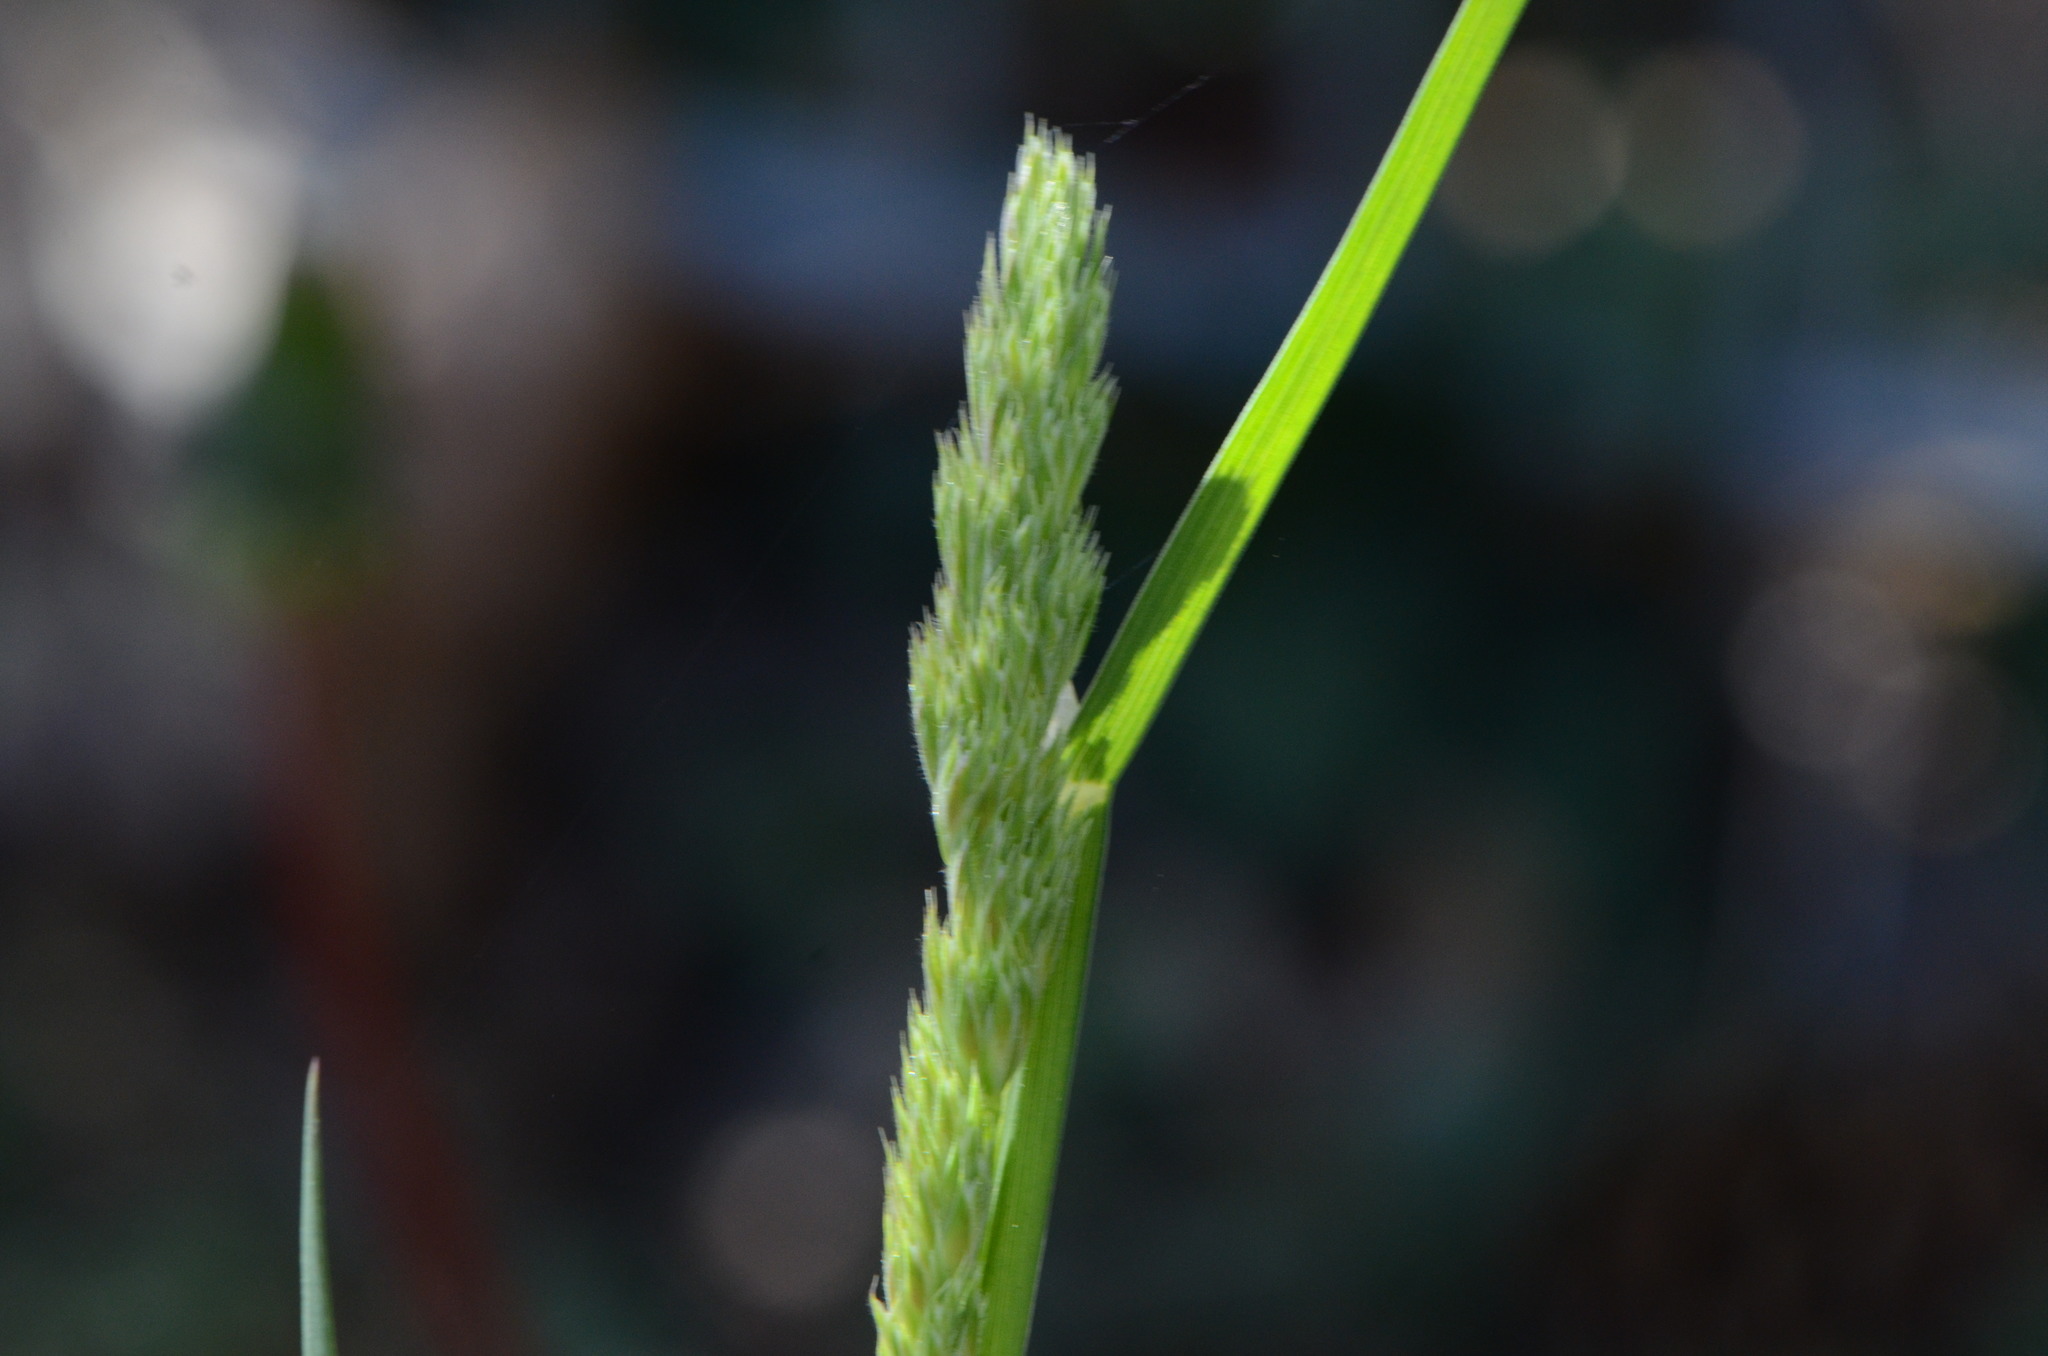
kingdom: Plantae
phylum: Tracheophyta
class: Liliopsida
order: Poales
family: Poaceae
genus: Dactylis
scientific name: Dactylis glomerata
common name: Orchardgrass
